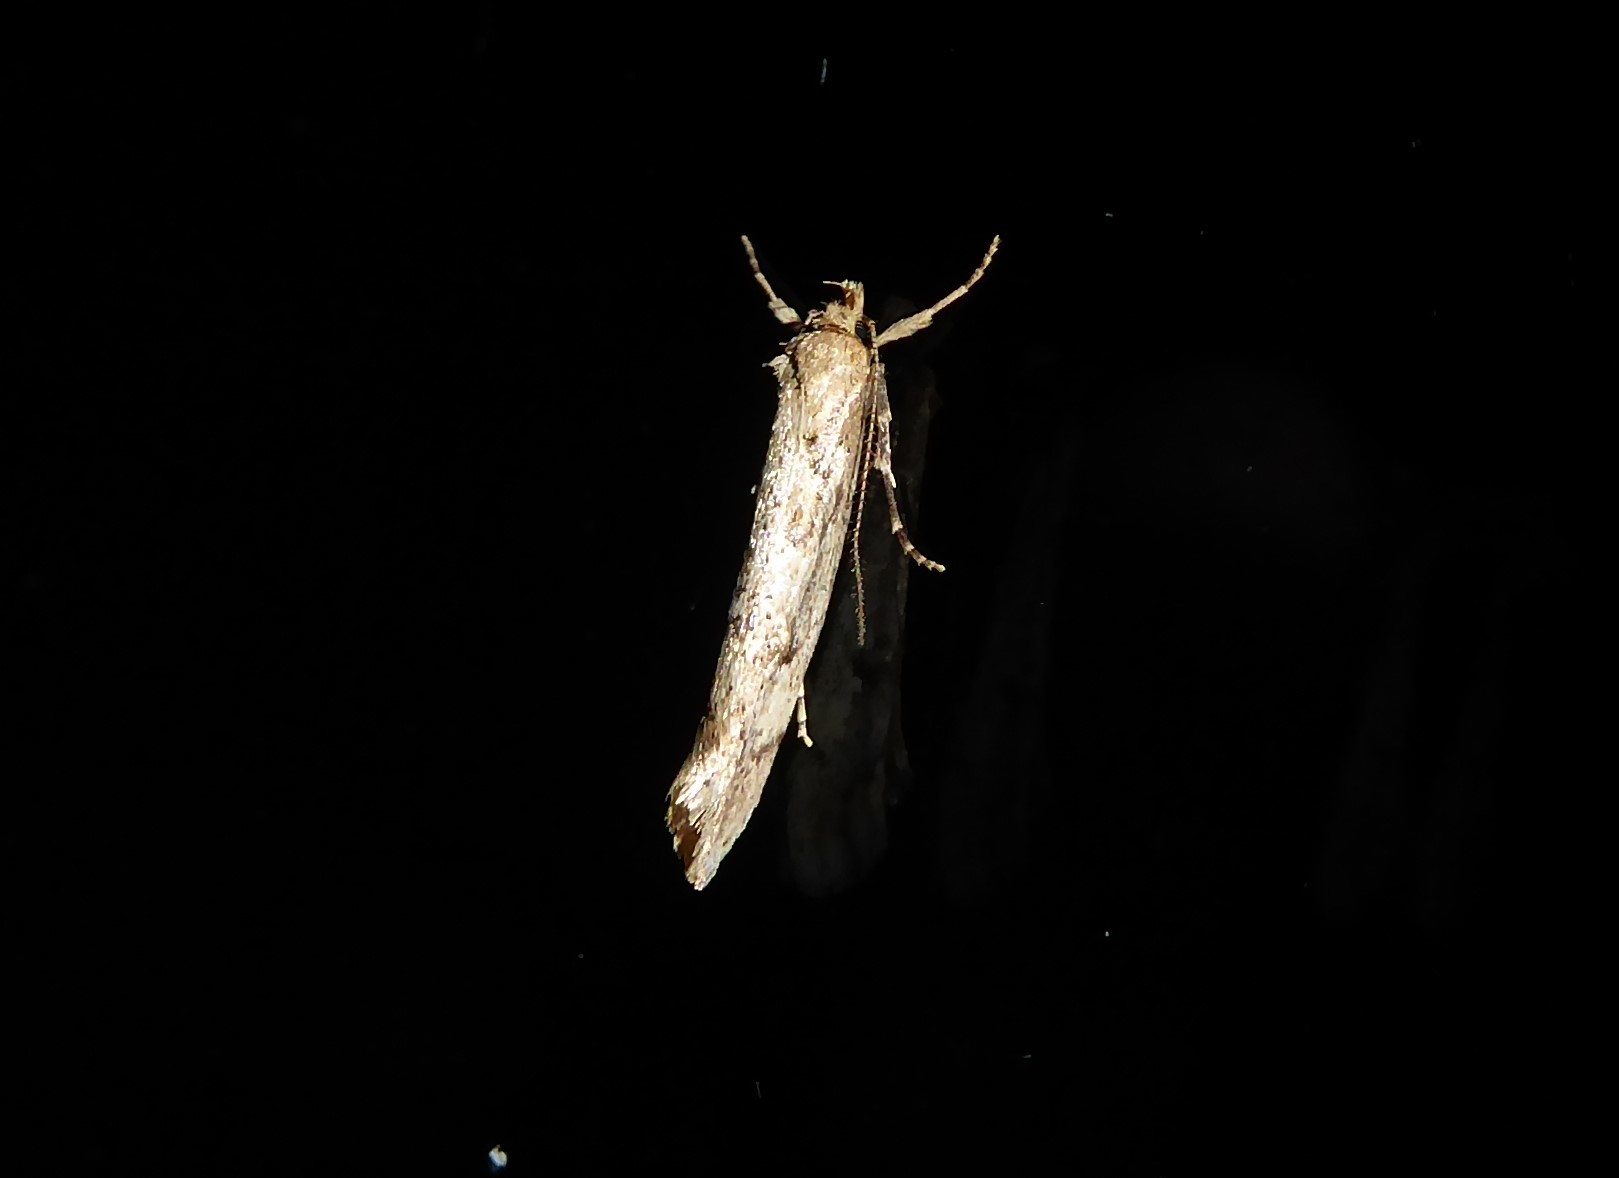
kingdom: Animalia
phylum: Arthropoda
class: Insecta
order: Lepidoptera
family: Oecophoridae
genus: Atomotricha
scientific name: Atomotricha chloronota
